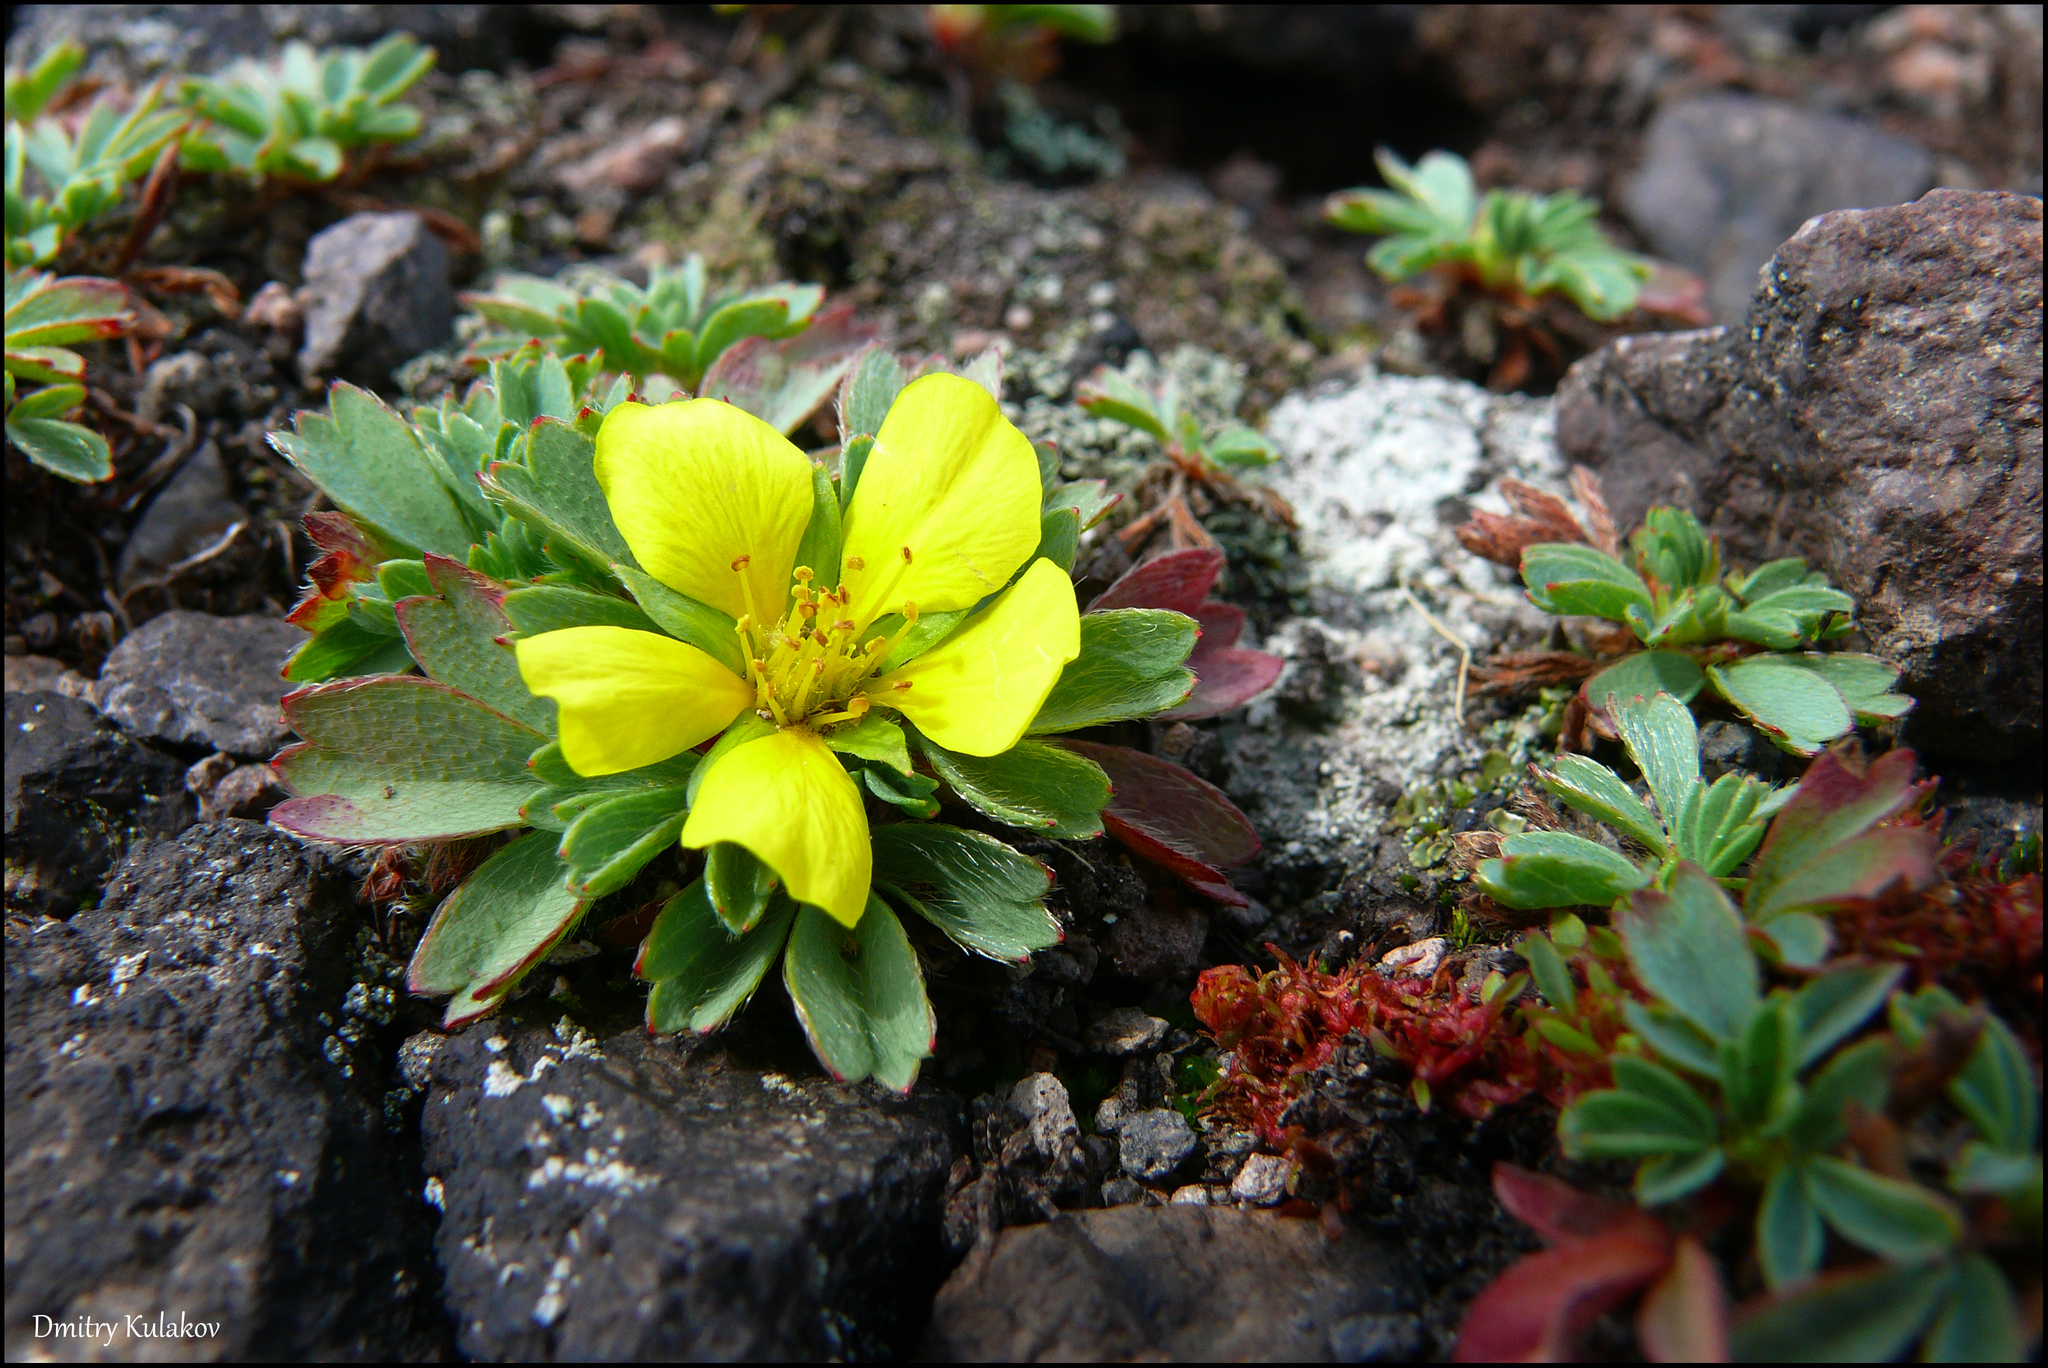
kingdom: Plantae
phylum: Tracheophyta
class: Magnoliopsida
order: Rosales
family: Rosaceae
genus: Sibbaldia
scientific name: Sibbaldia miyabei
